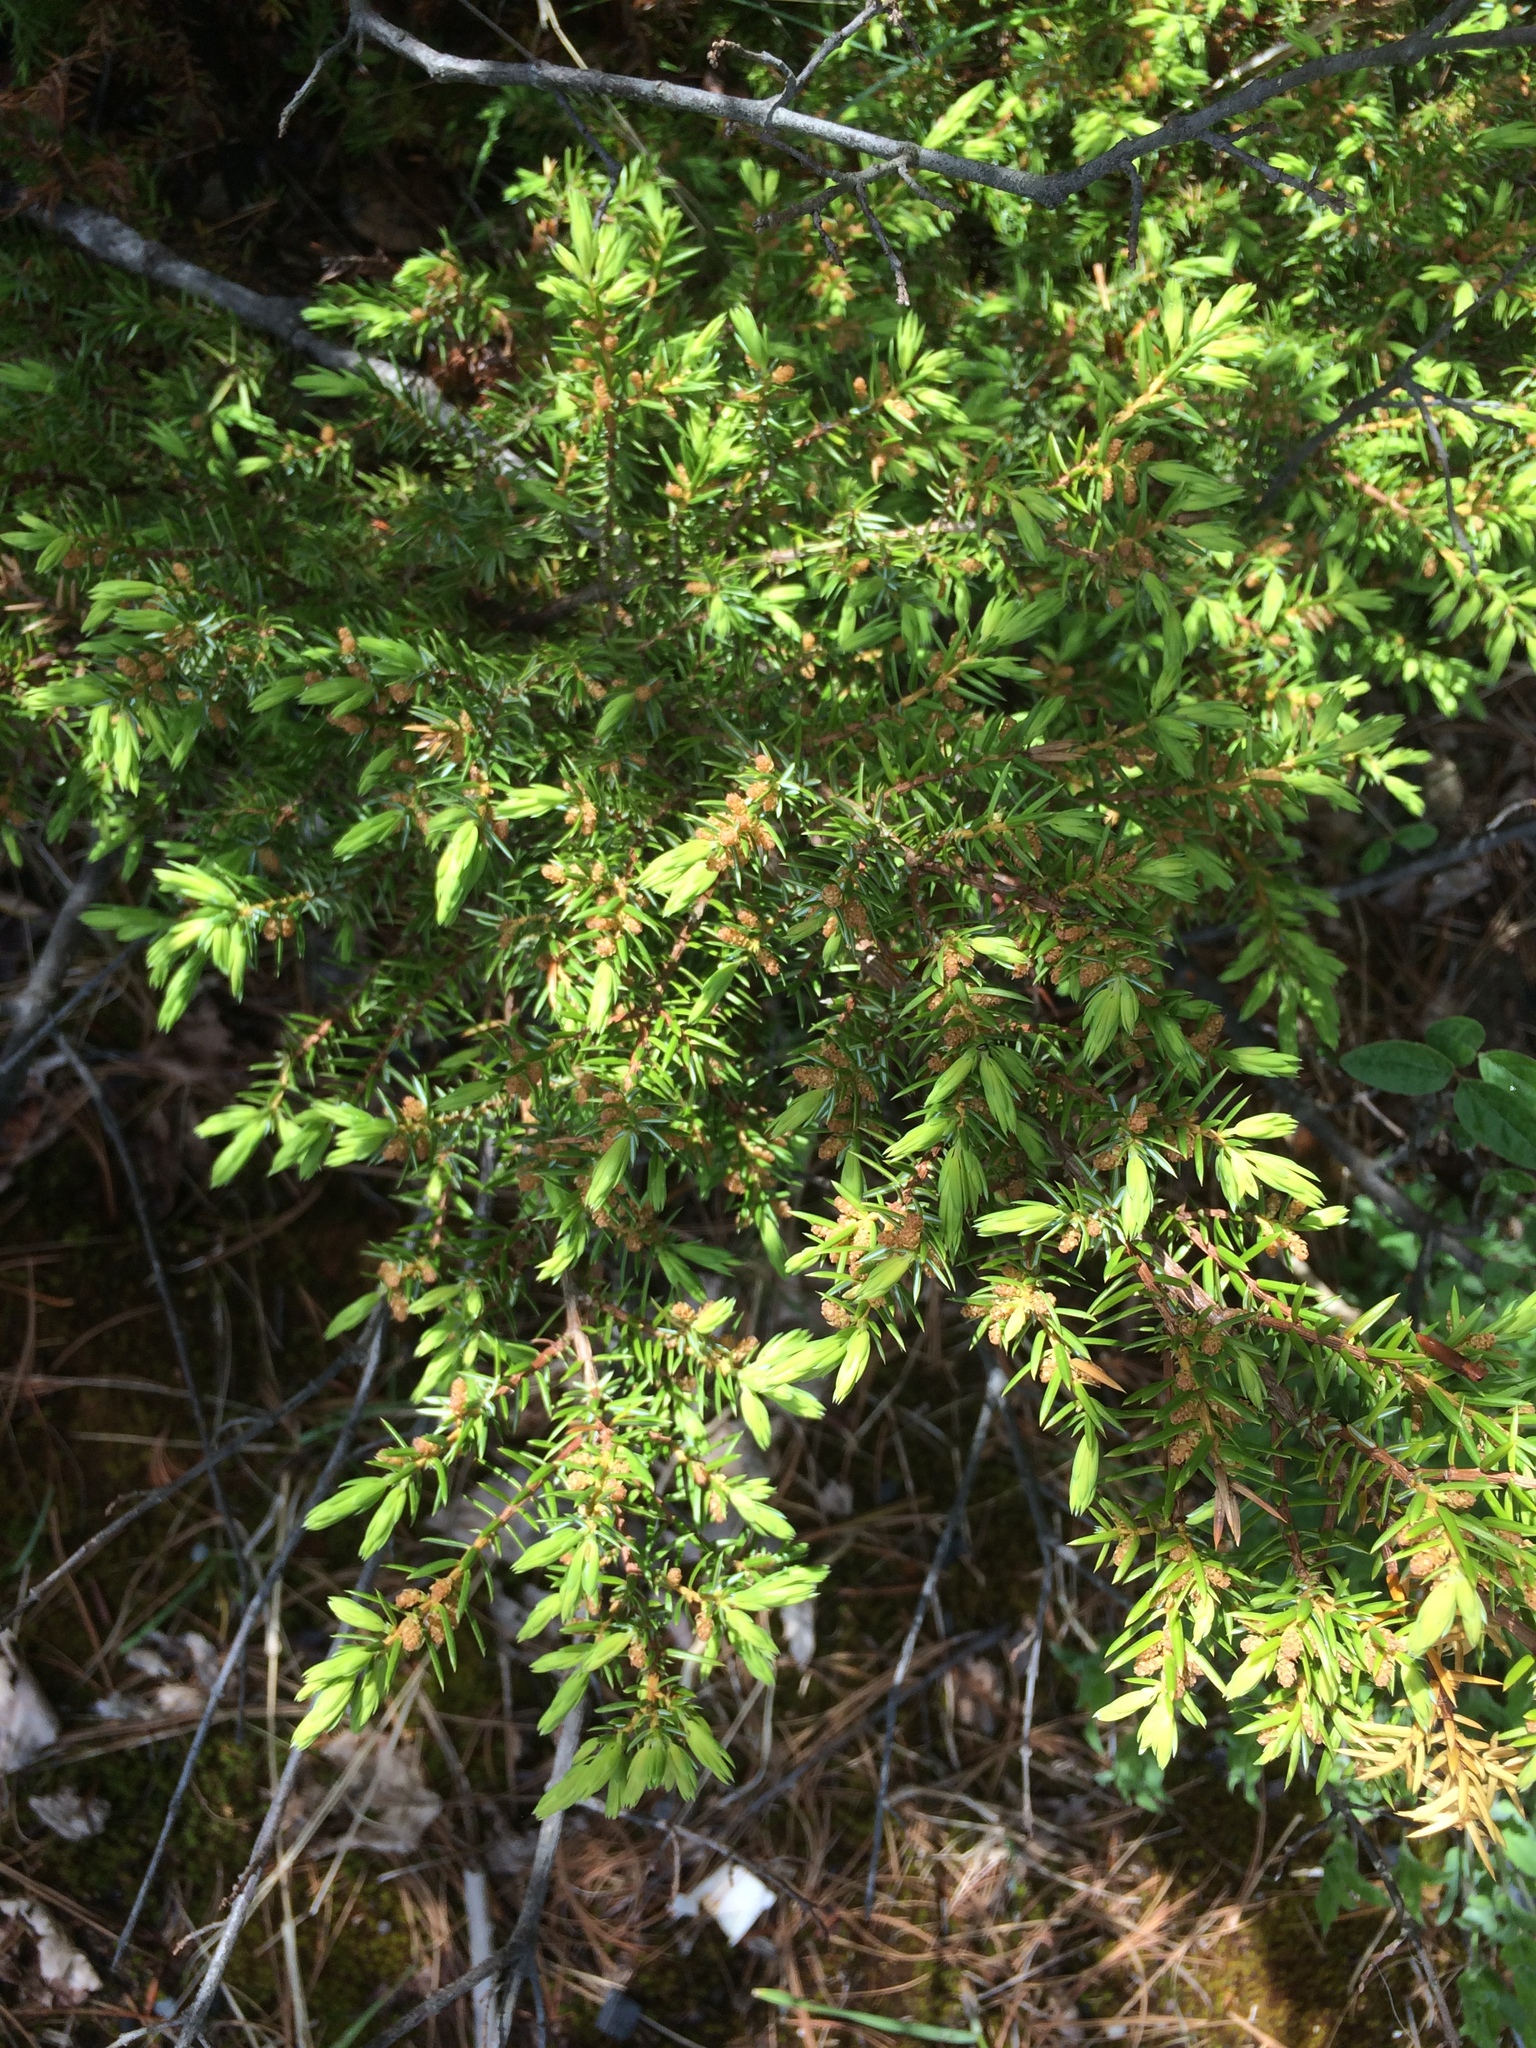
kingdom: Plantae
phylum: Tracheophyta
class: Pinopsida
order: Pinales
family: Cupressaceae
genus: Juniperus
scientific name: Juniperus communis
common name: Common juniper
